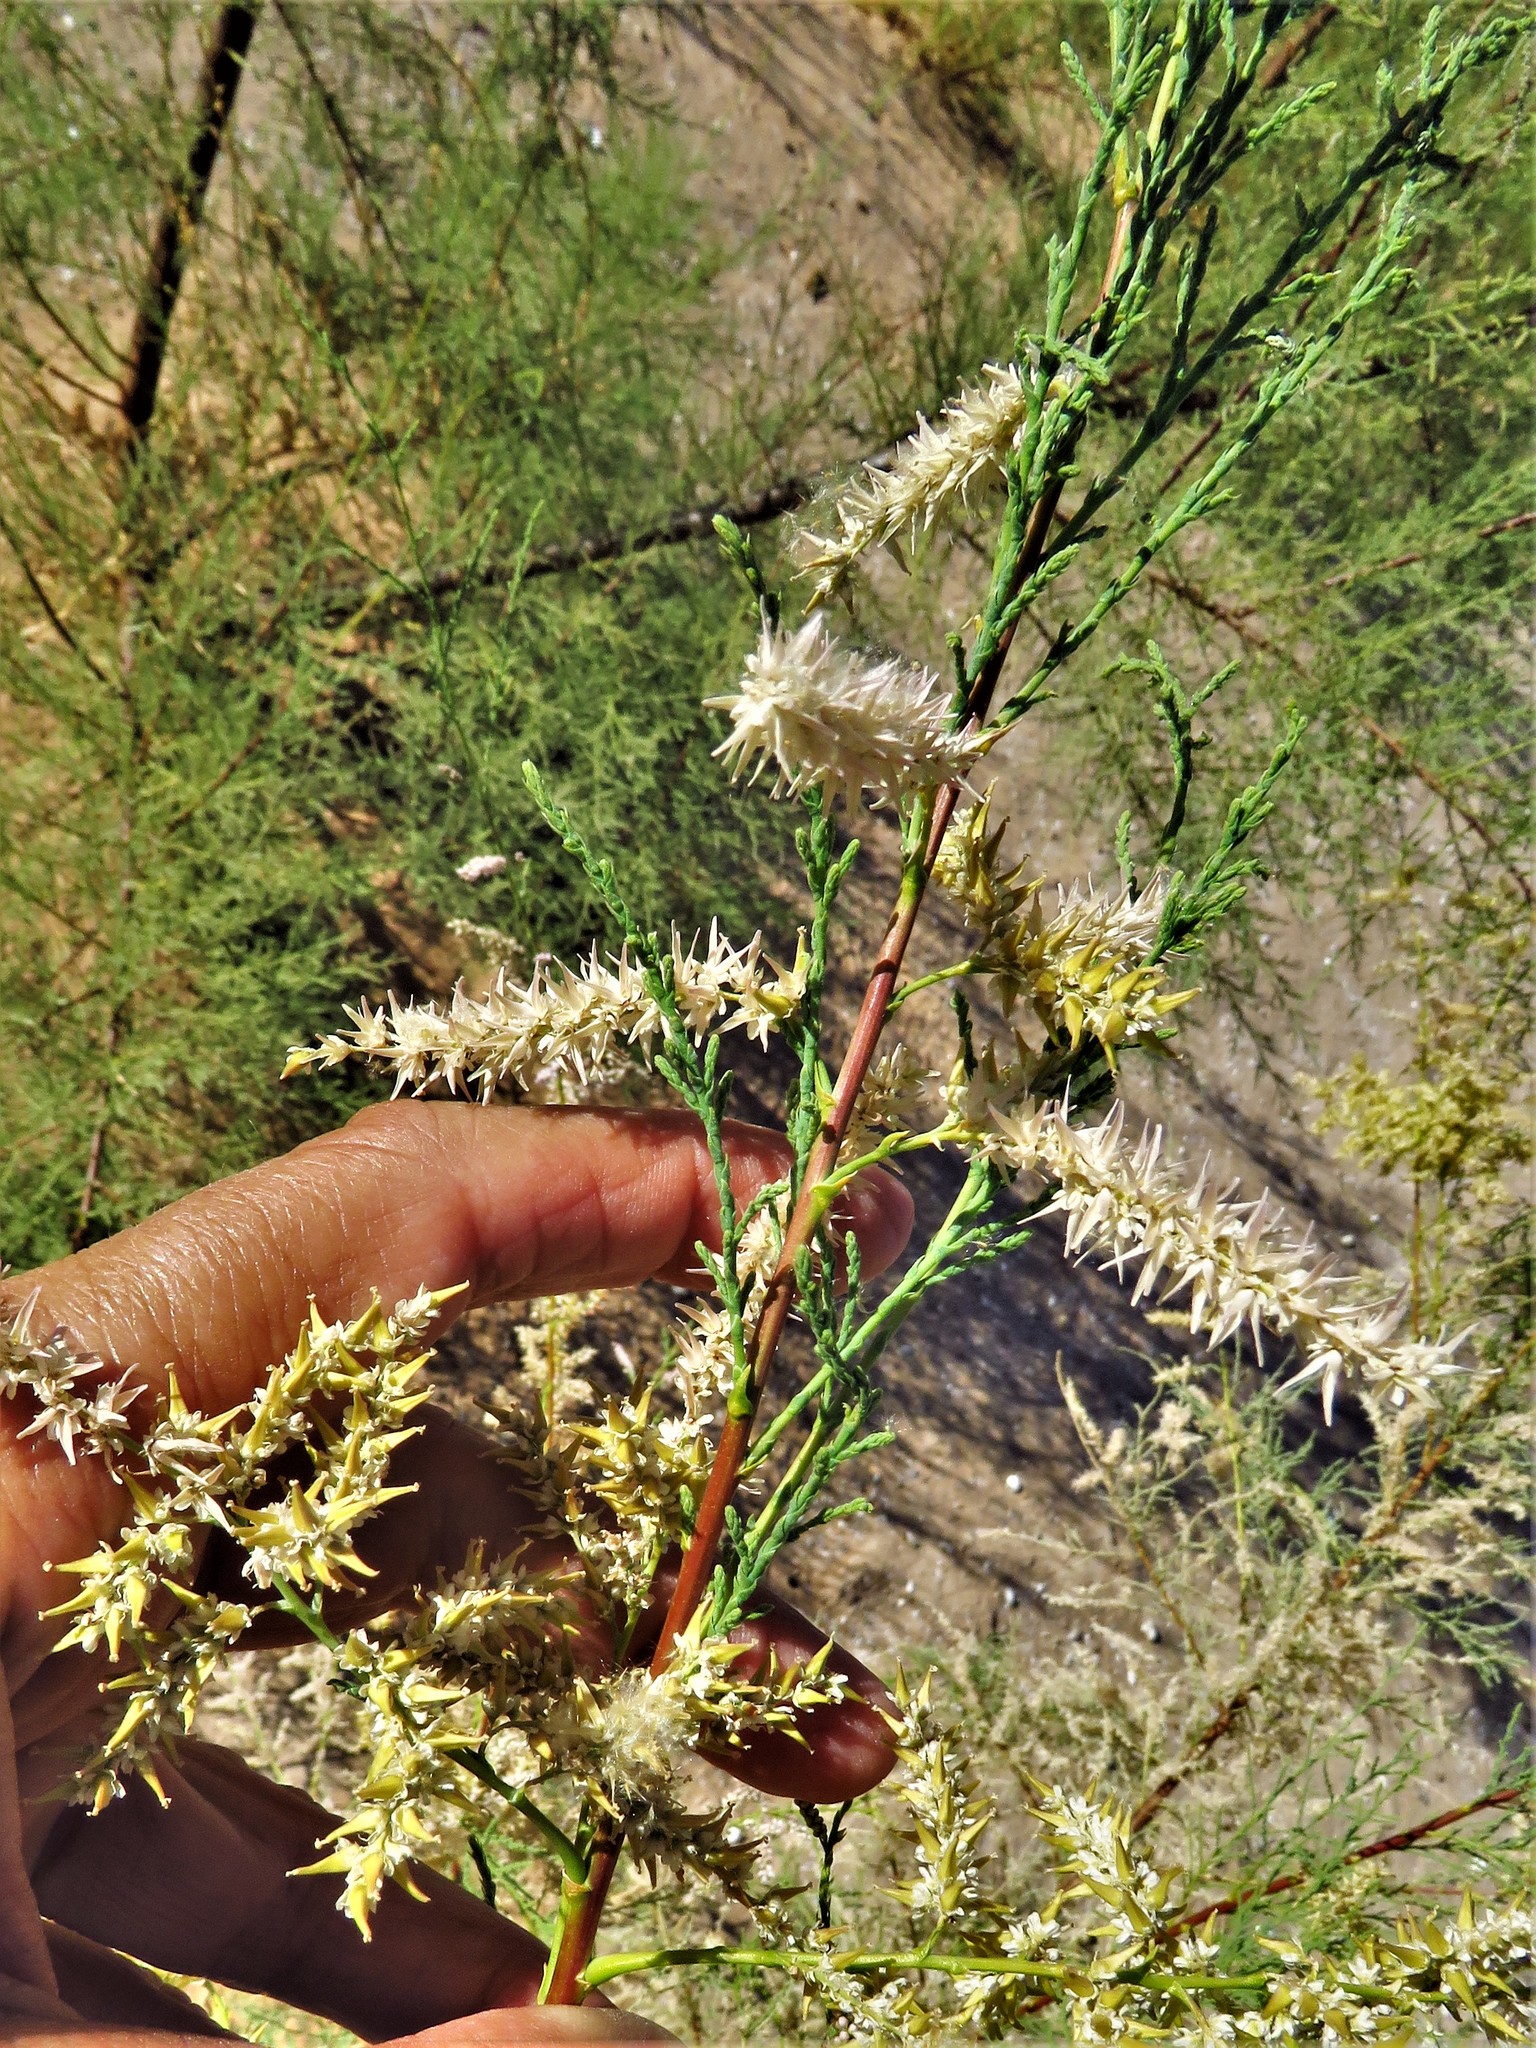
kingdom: Plantae
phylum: Tracheophyta
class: Magnoliopsida
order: Caryophyllales
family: Tamaricaceae
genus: Tamarix
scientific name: Tamarix
